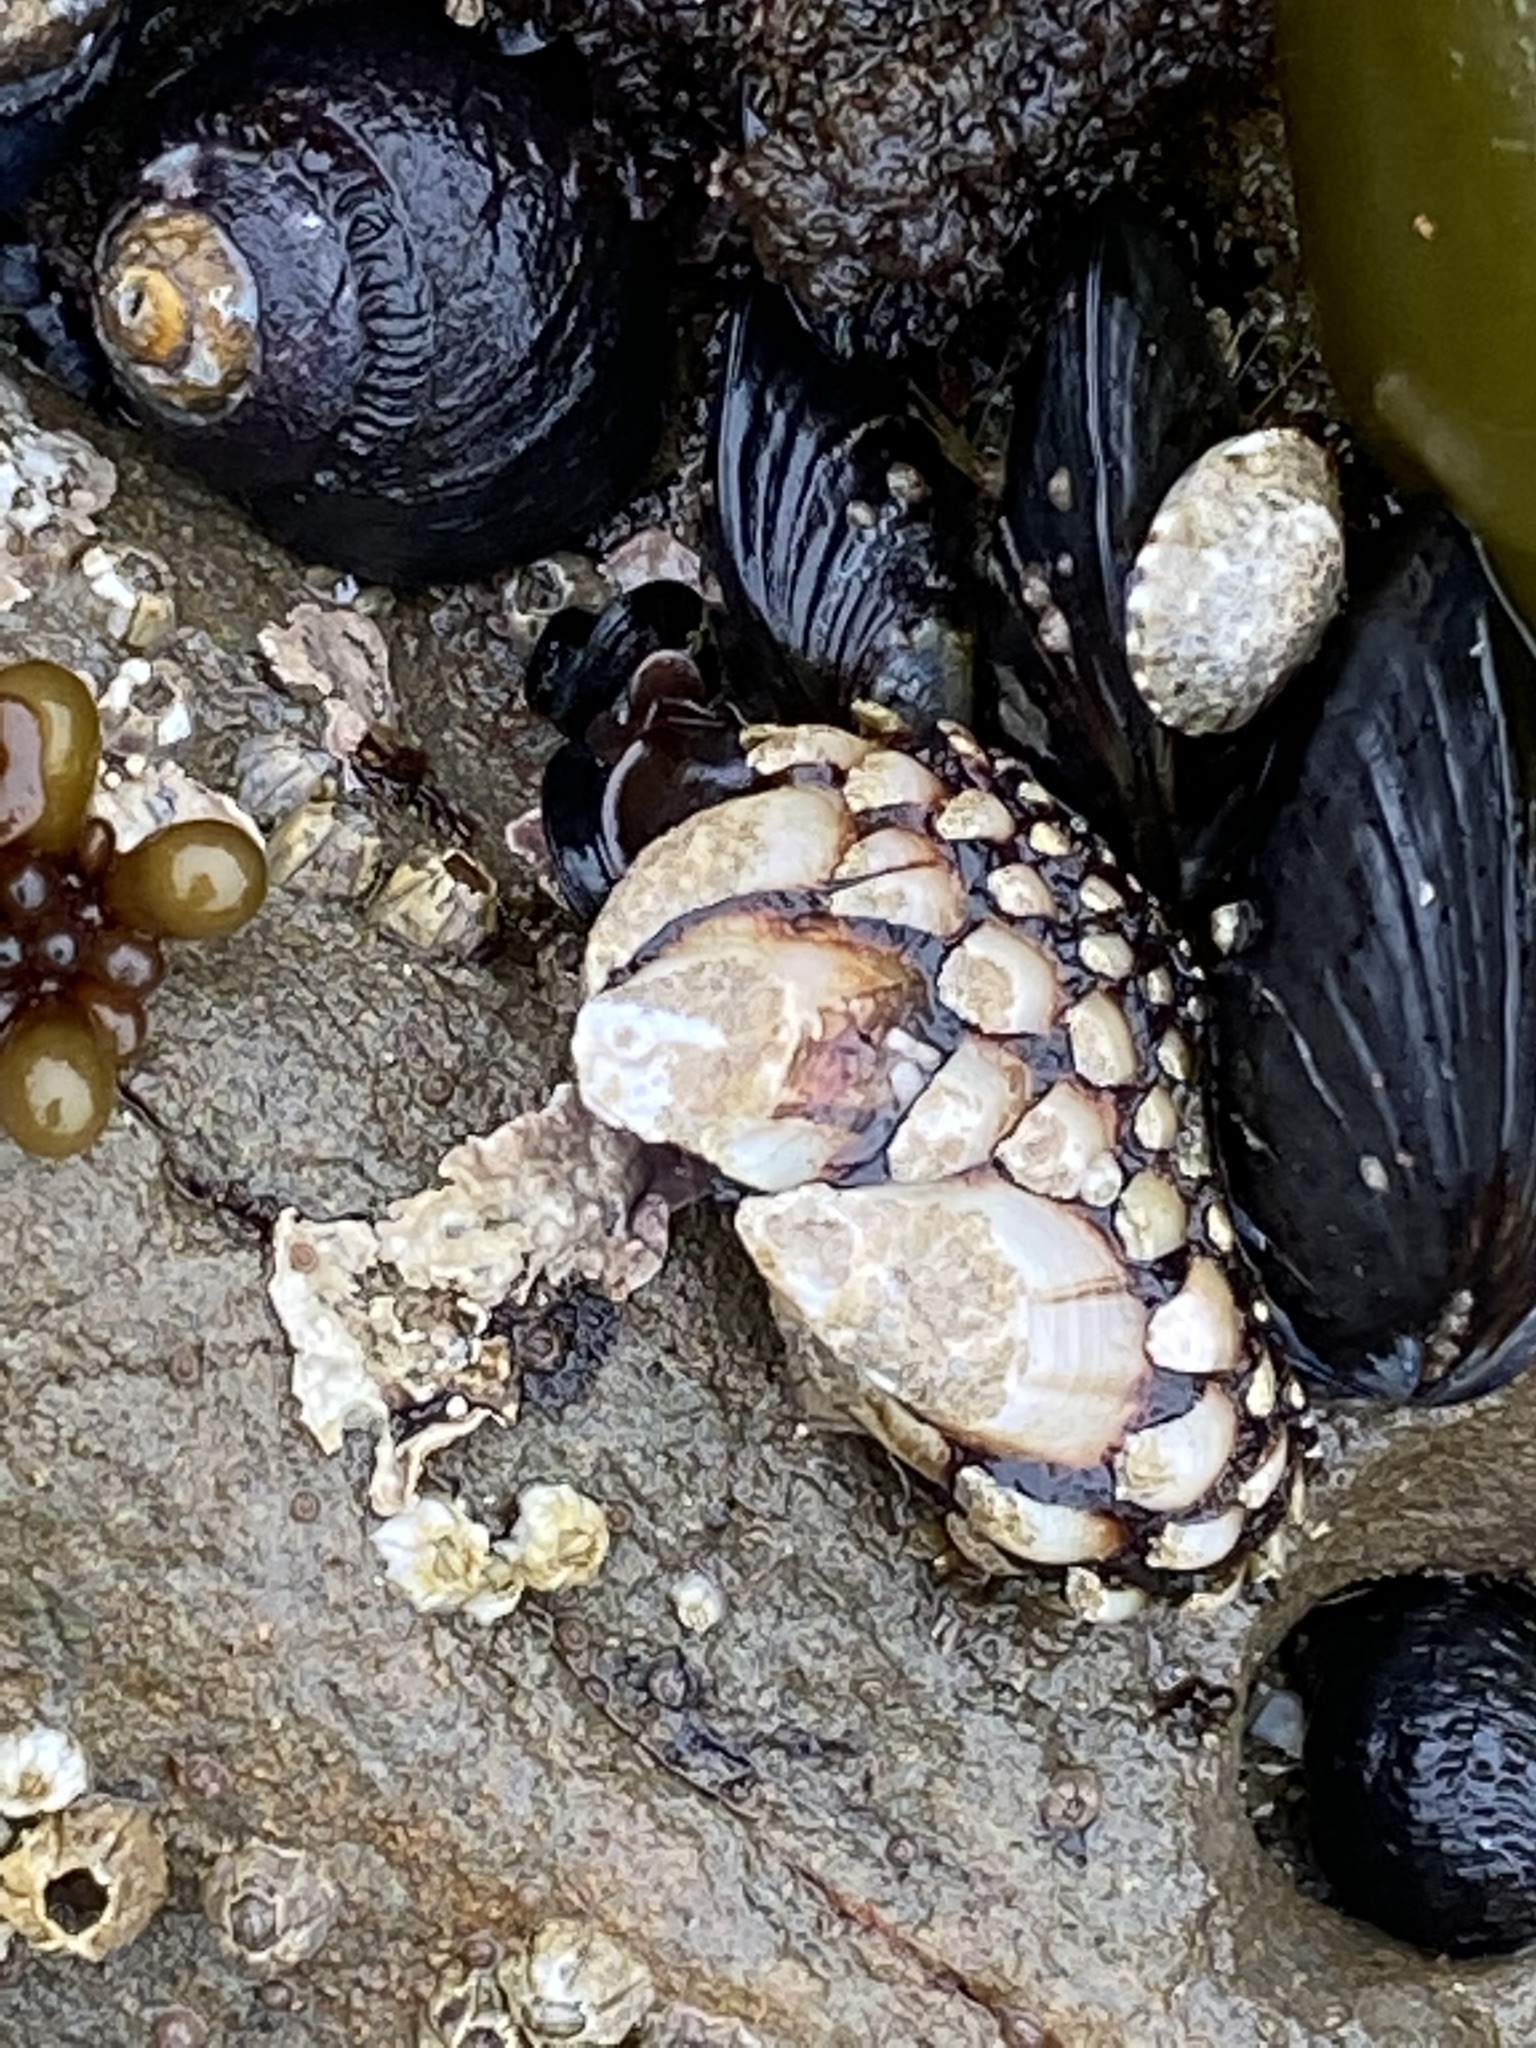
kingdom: Animalia
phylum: Arthropoda
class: Maxillopoda
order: Pedunculata
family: Pollicipedidae
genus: Pollicipes
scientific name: Pollicipes polymerus
